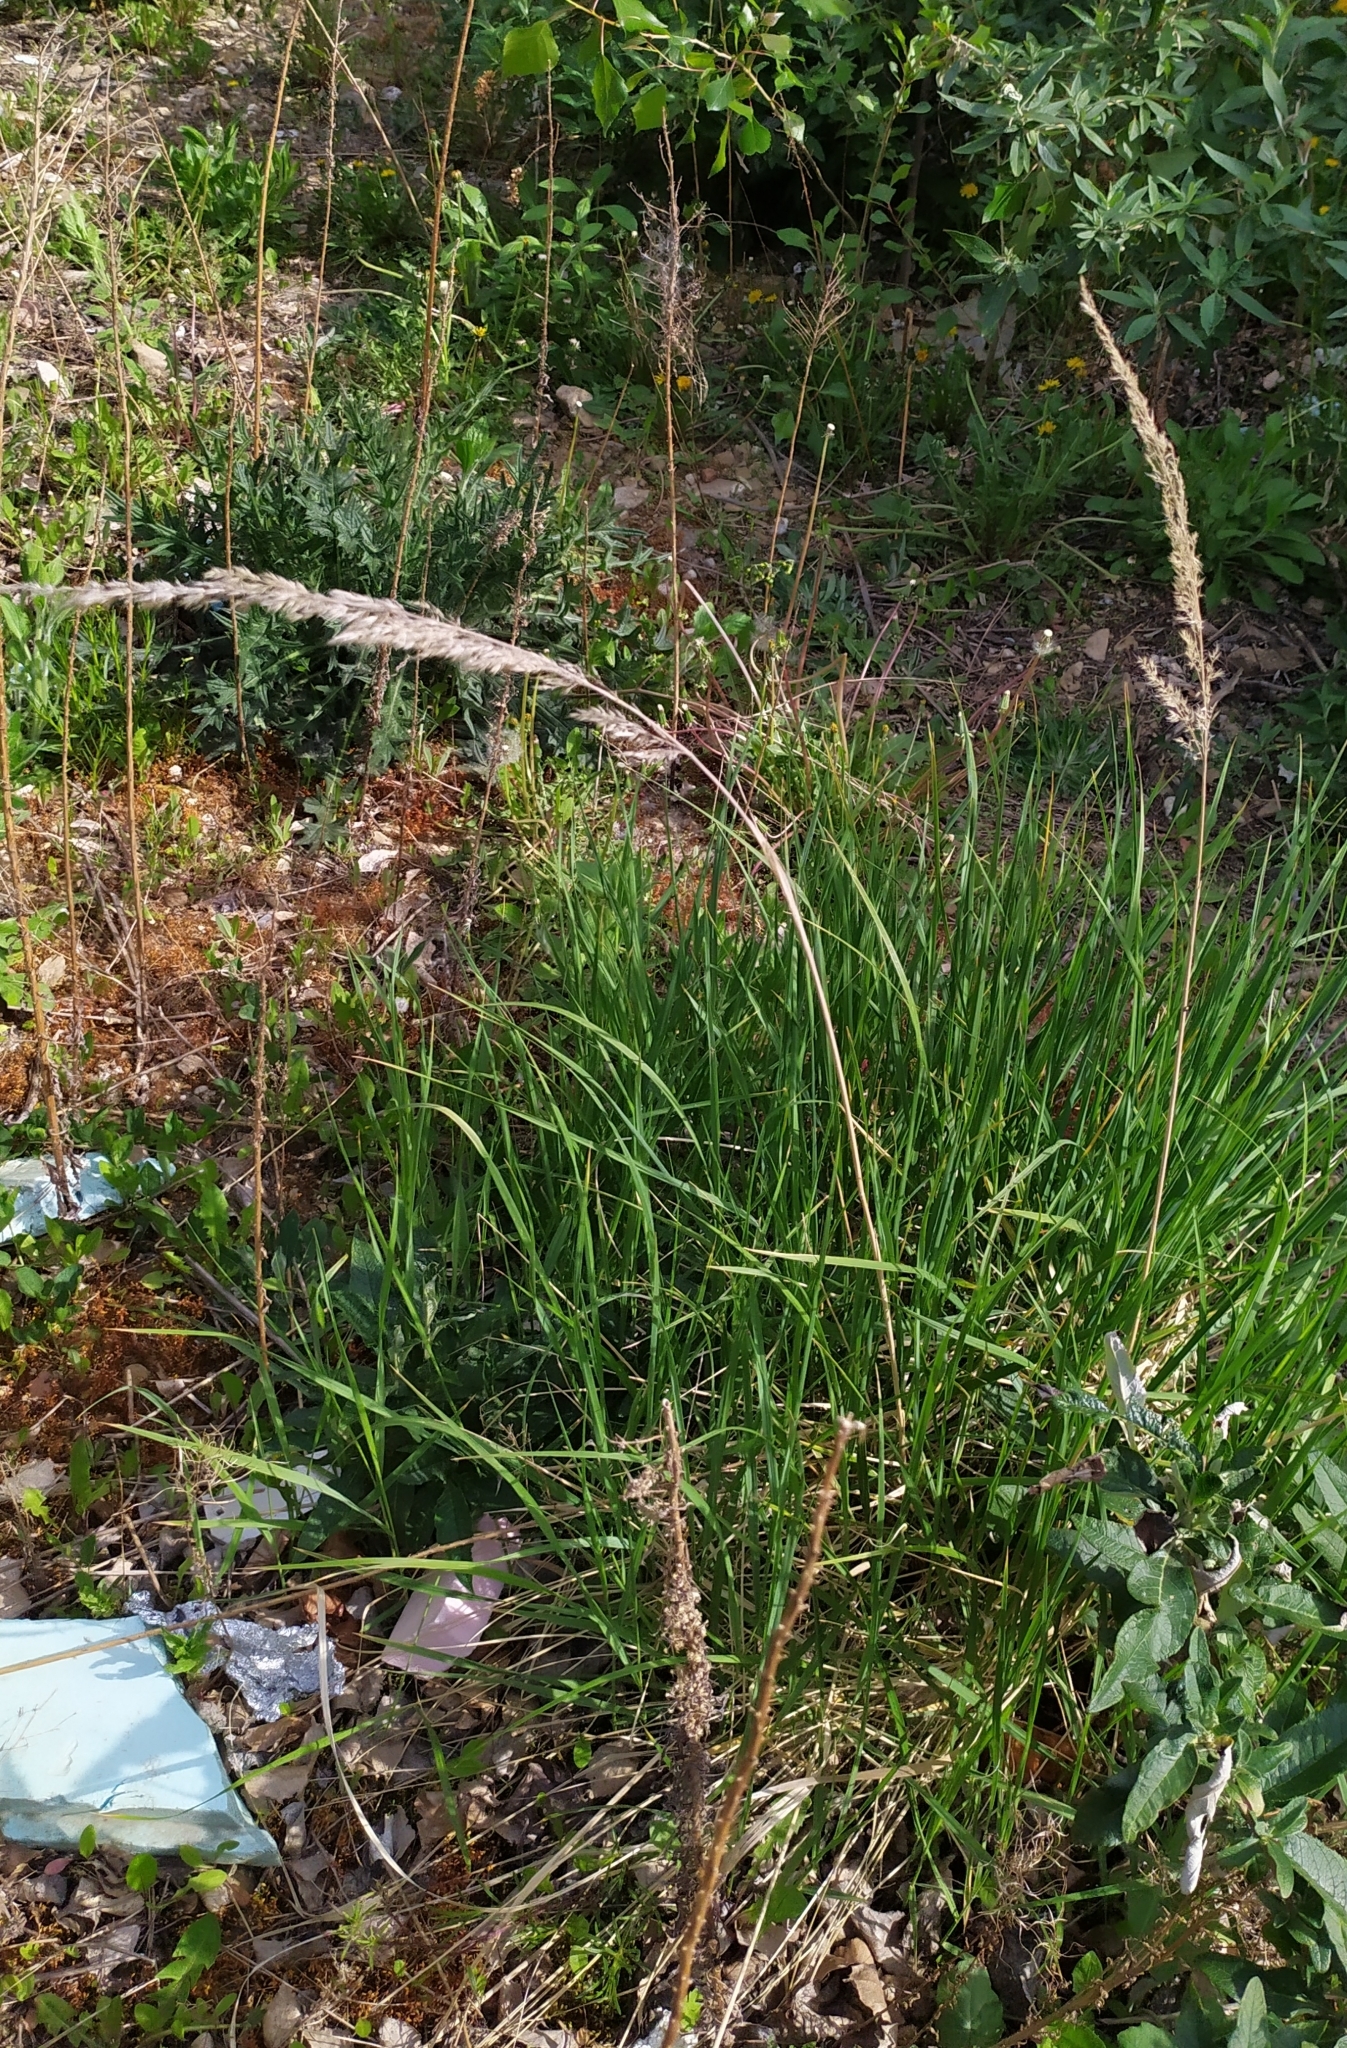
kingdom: Plantae
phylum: Tracheophyta
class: Liliopsida
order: Poales
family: Poaceae
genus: Calamagrostis
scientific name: Calamagrostis epigejos
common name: Wood small-reed
